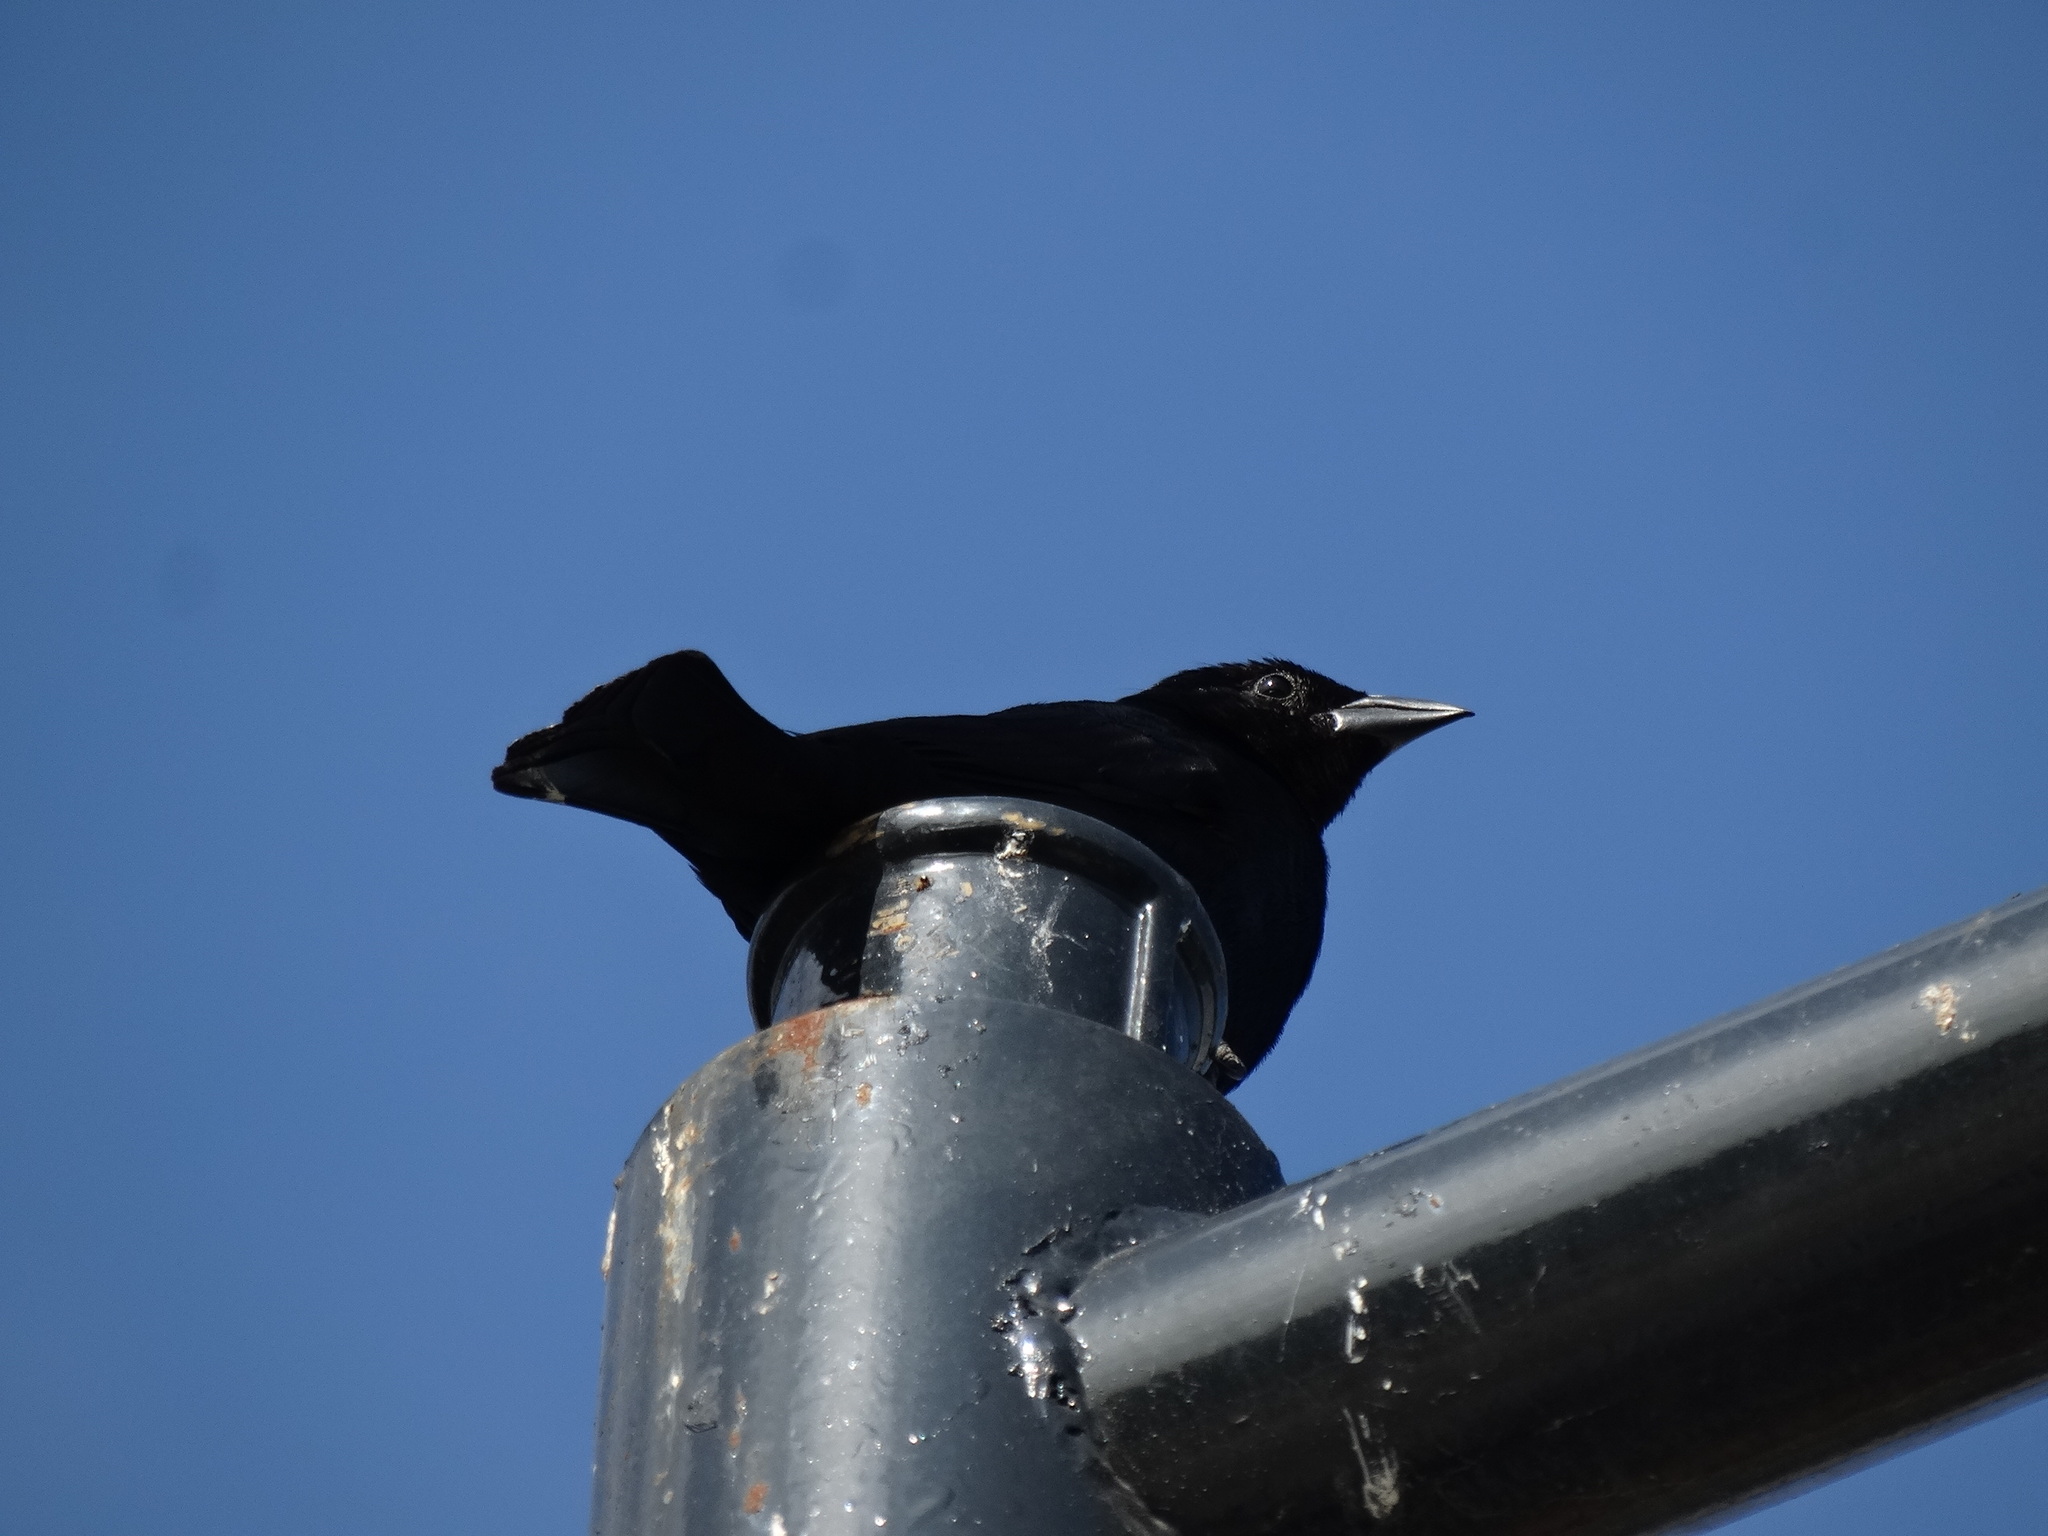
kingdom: Animalia
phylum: Chordata
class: Aves
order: Passeriformes
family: Icteridae
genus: Molothrus
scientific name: Molothrus bonariensis
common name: Shiny cowbird
